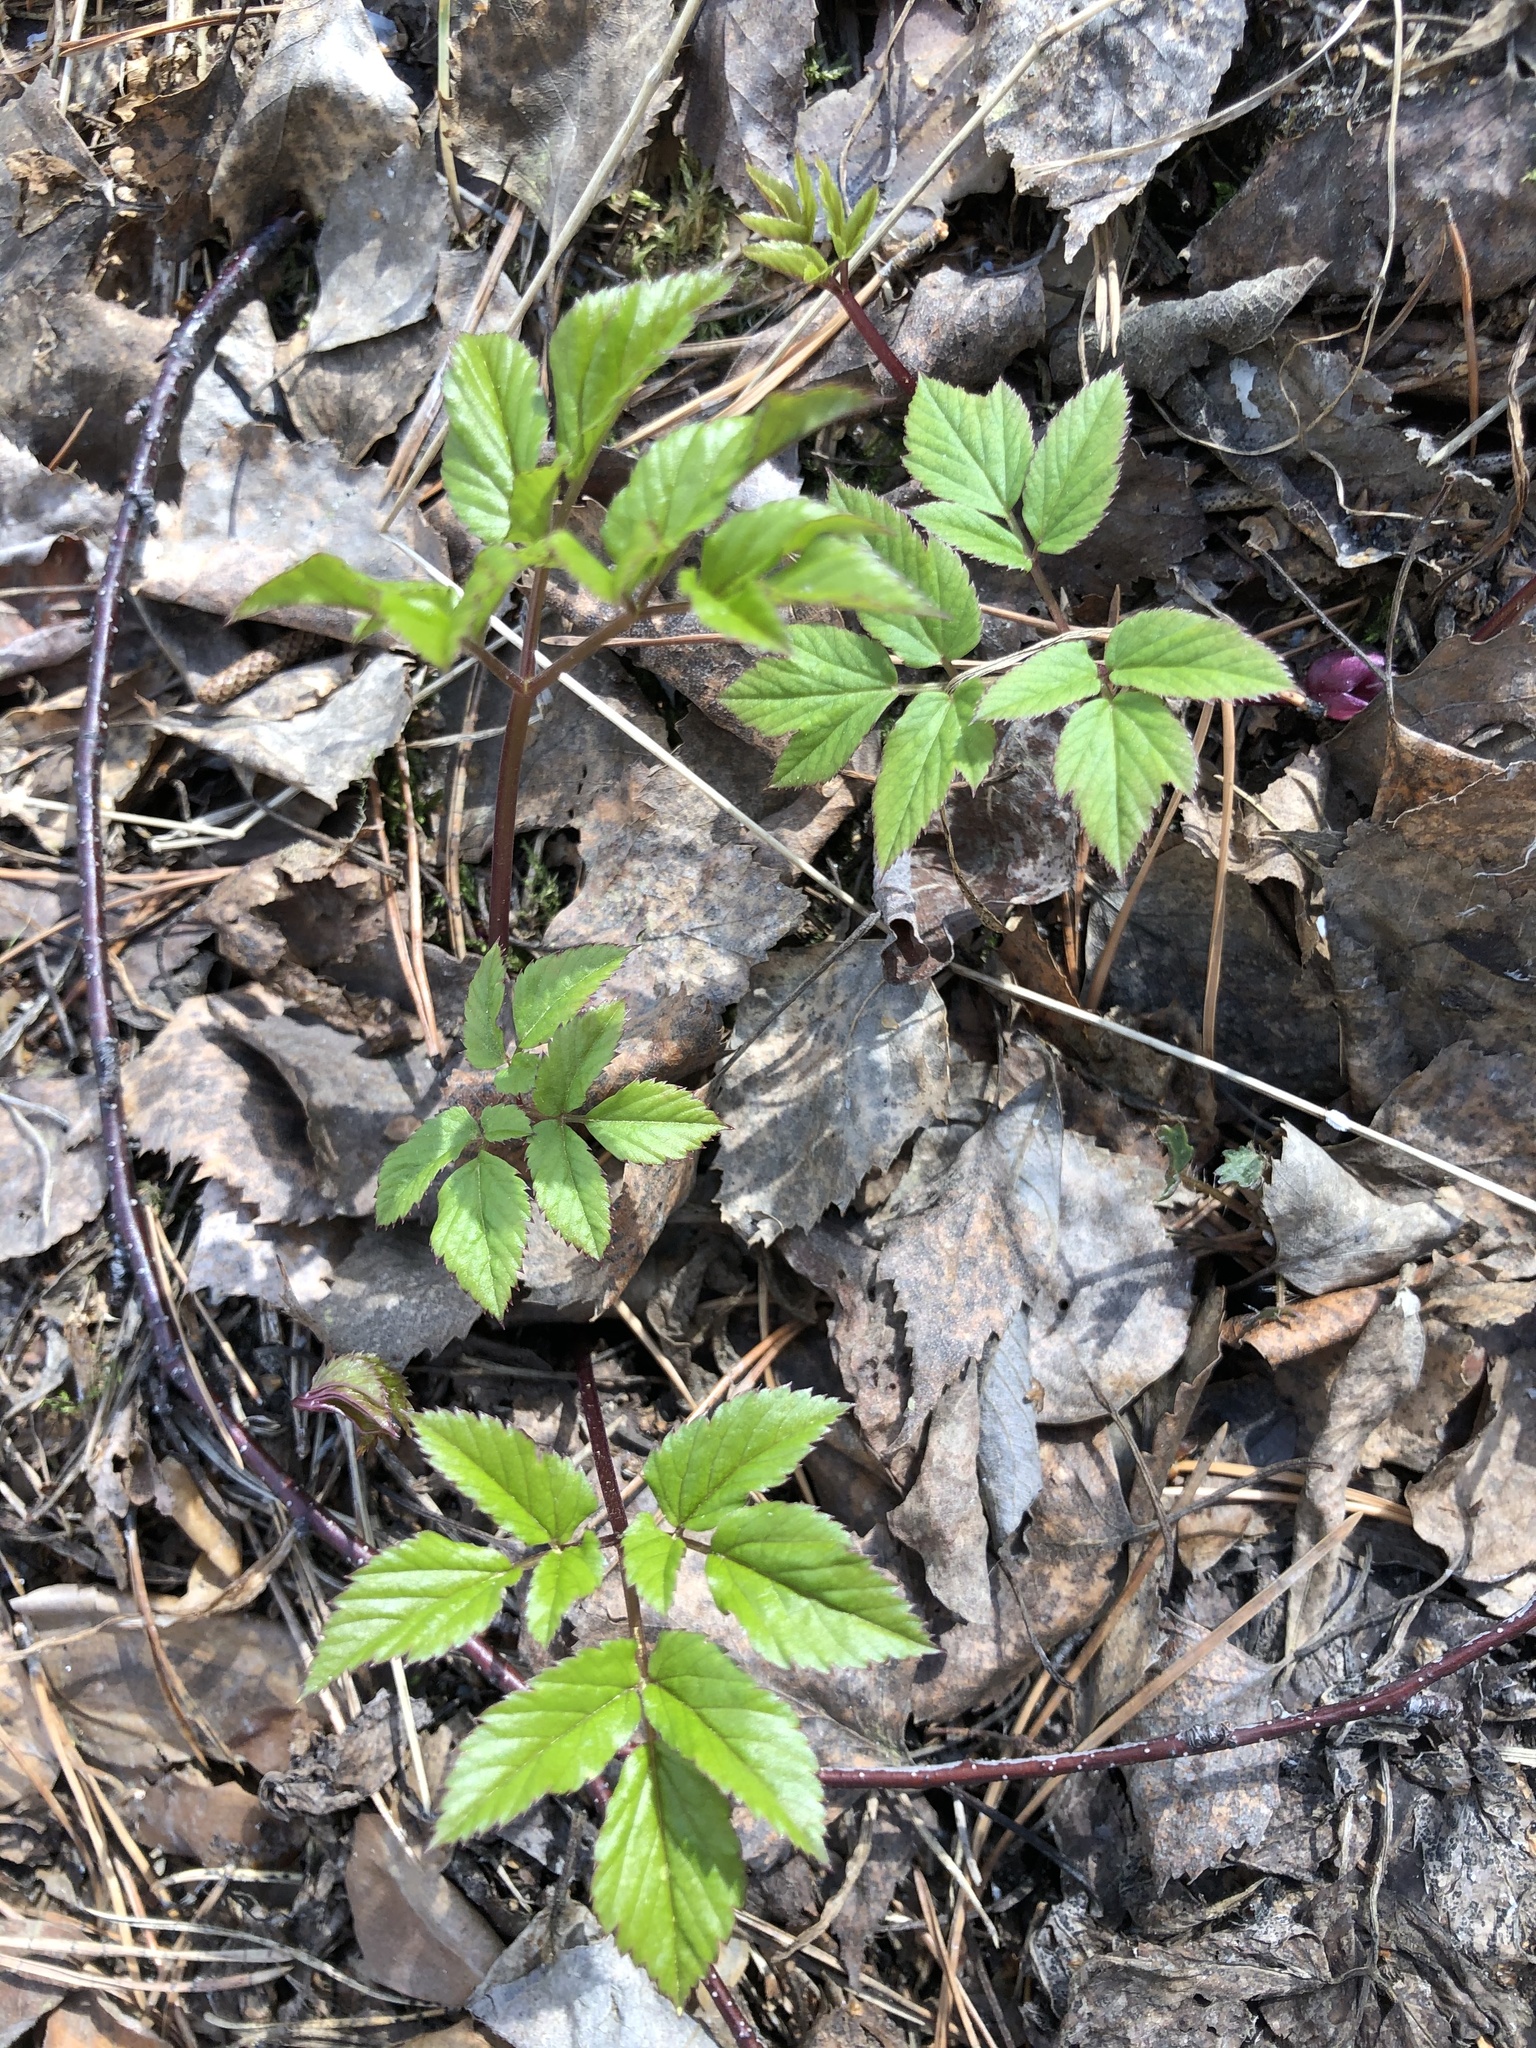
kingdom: Plantae
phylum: Tracheophyta
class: Magnoliopsida
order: Apiales
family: Apiaceae
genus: Aegopodium
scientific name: Aegopodium podagraria
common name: Ground-elder
